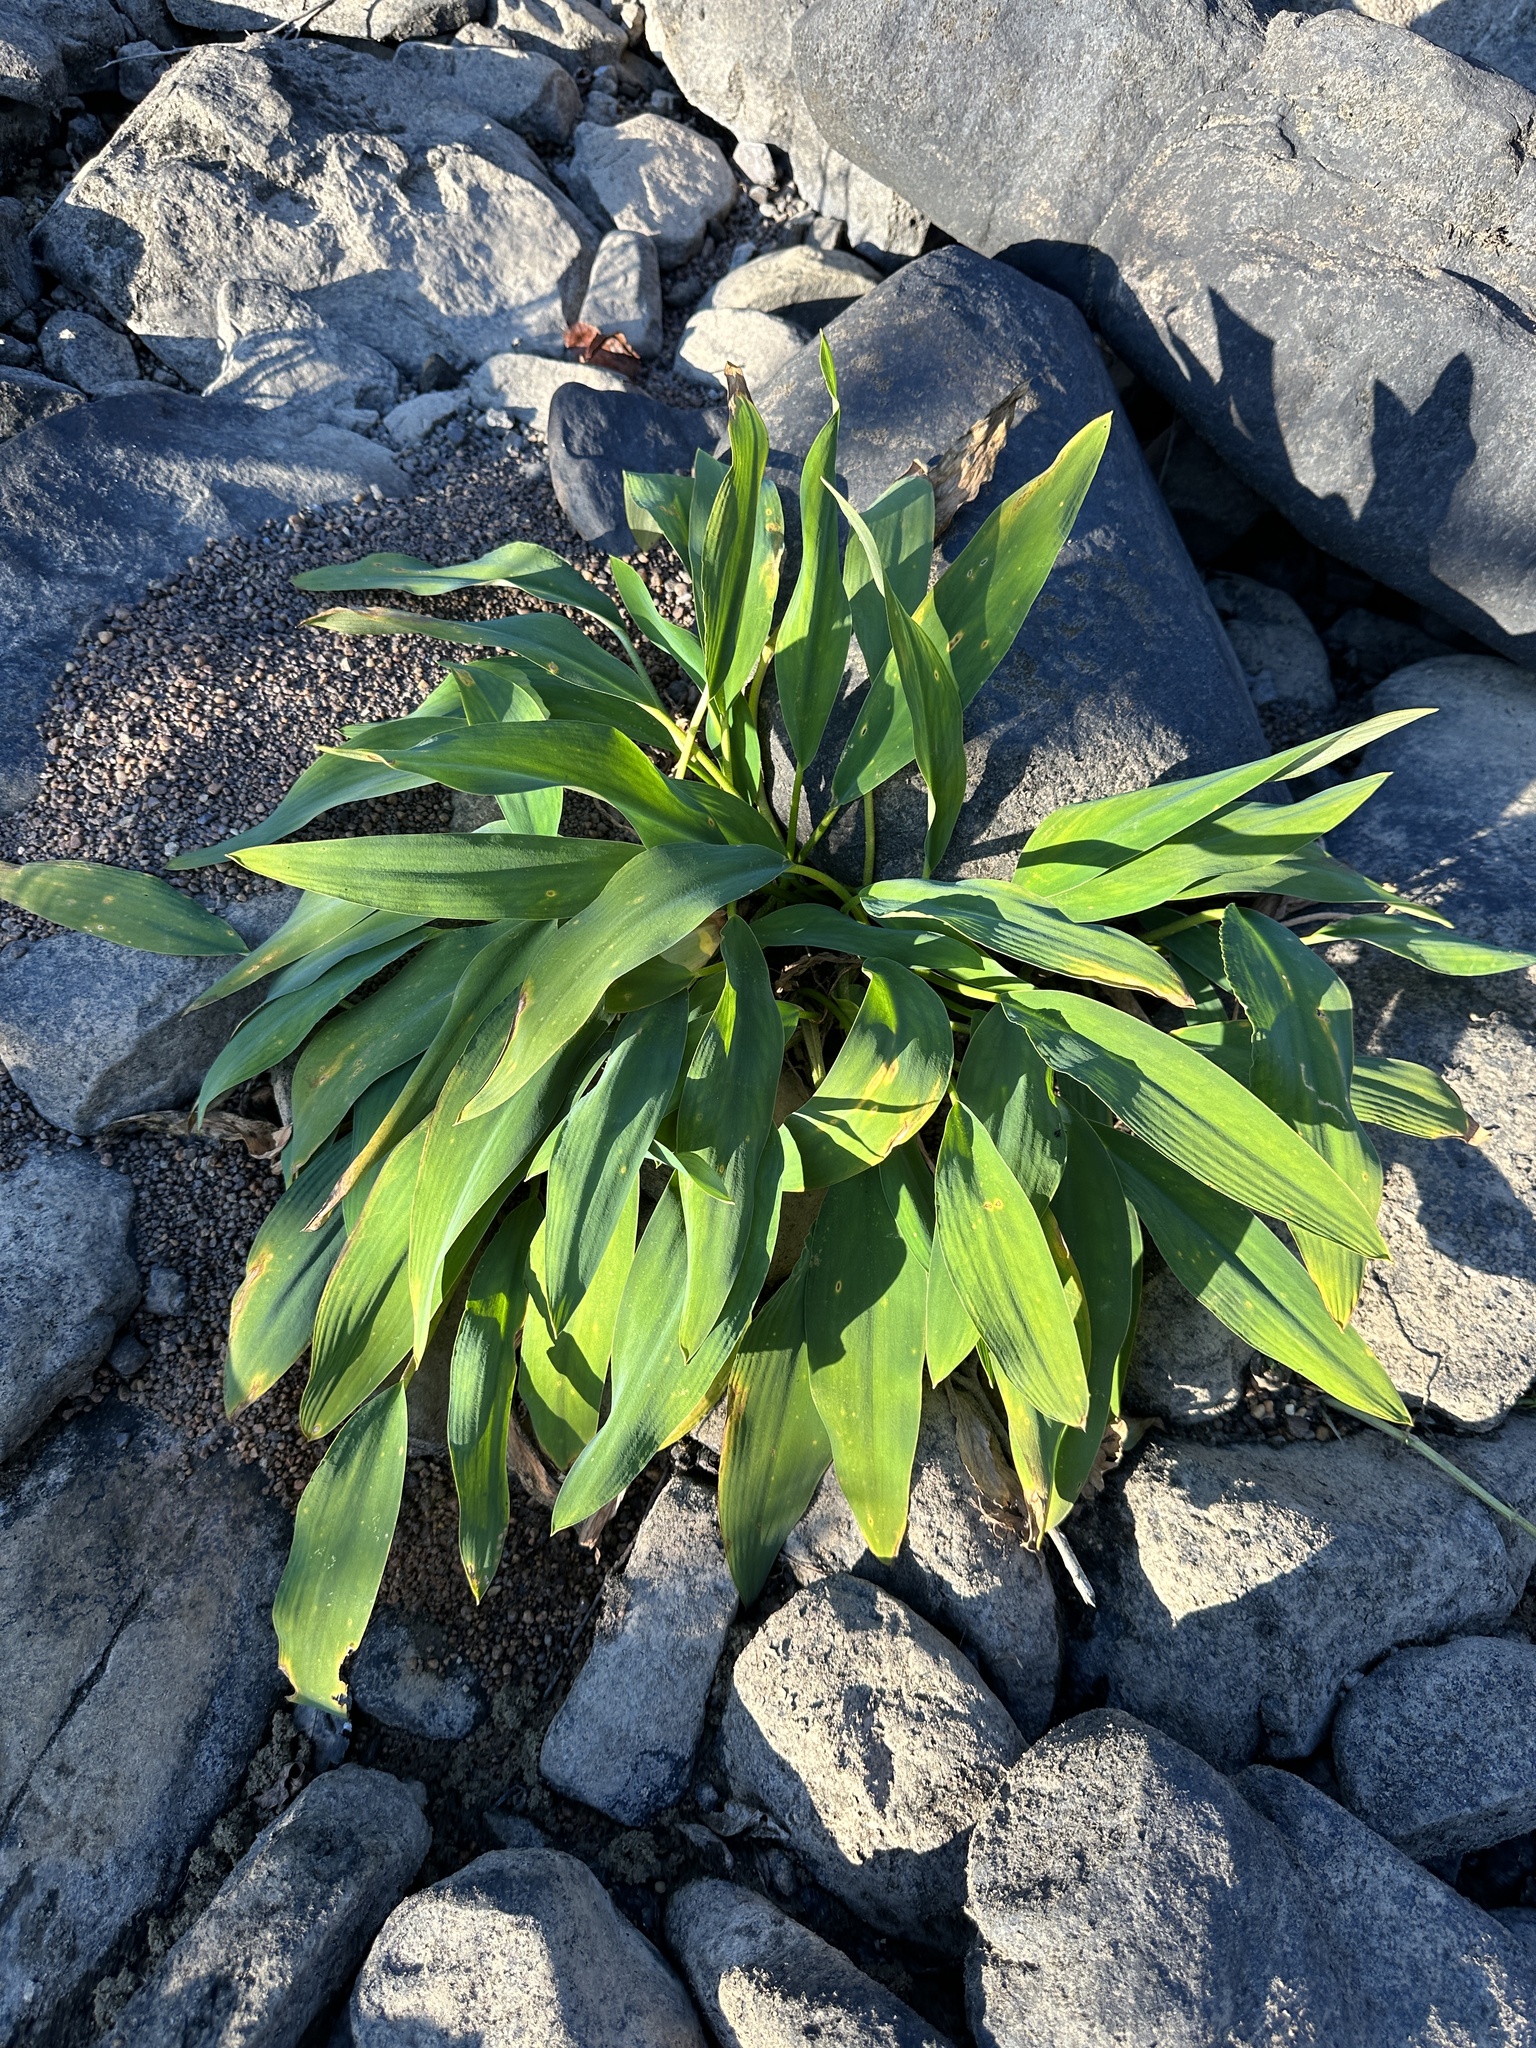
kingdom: Plantae
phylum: Tracheophyta
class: Liliopsida
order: Alismatales
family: Araceae
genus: Orontium
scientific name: Orontium aquaticum
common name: Golden-club
